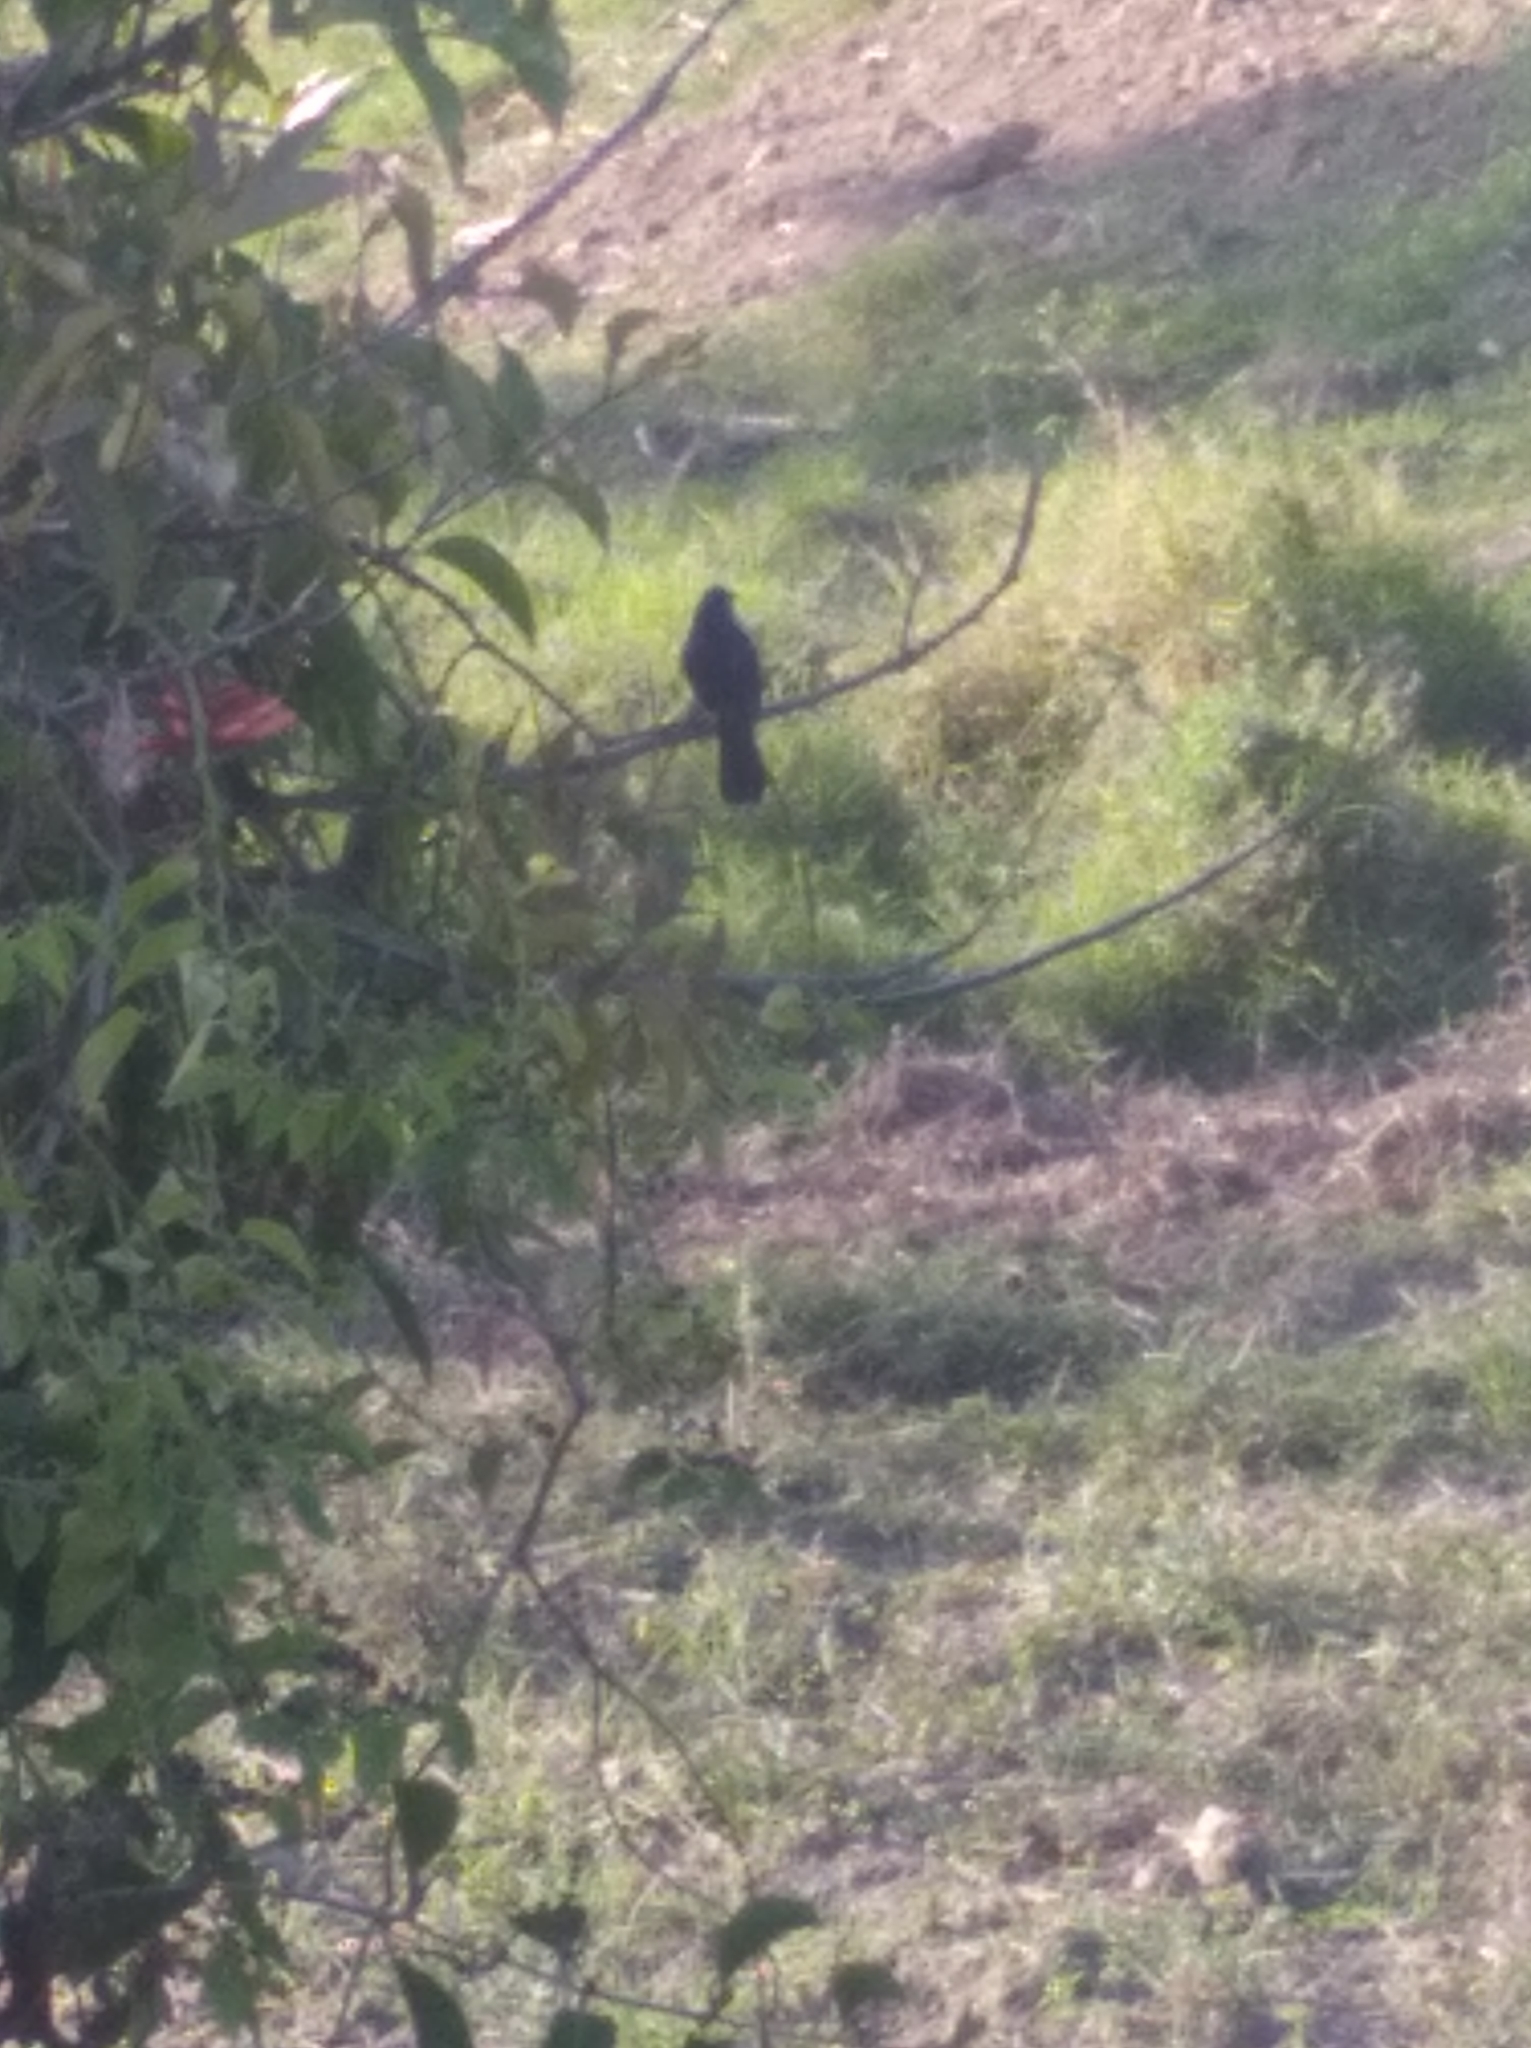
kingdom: Animalia
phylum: Chordata
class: Aves
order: Passeriformes
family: Thraupidae
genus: Tachyphonus
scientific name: Tachyphonus rufus
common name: White-lined tanager
